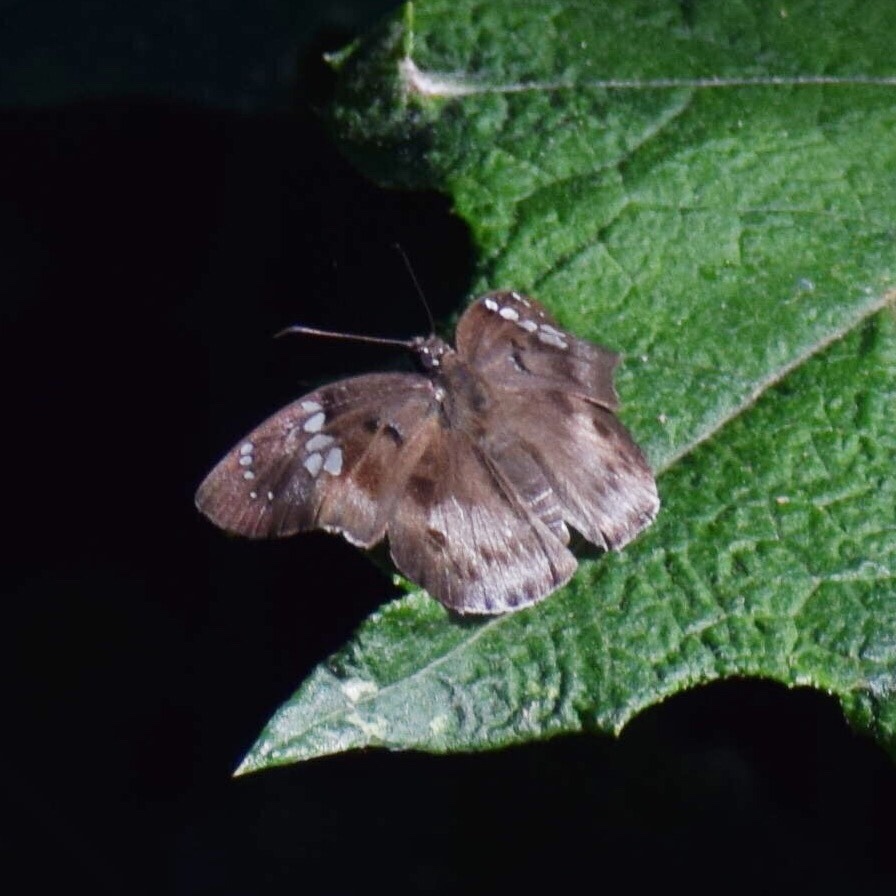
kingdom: Animalia
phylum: Arthropoda
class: Insecta
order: Lepidoptera
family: Hesperiidae
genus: Tagiades
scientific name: Tagiades flesus
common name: Clouded flat
